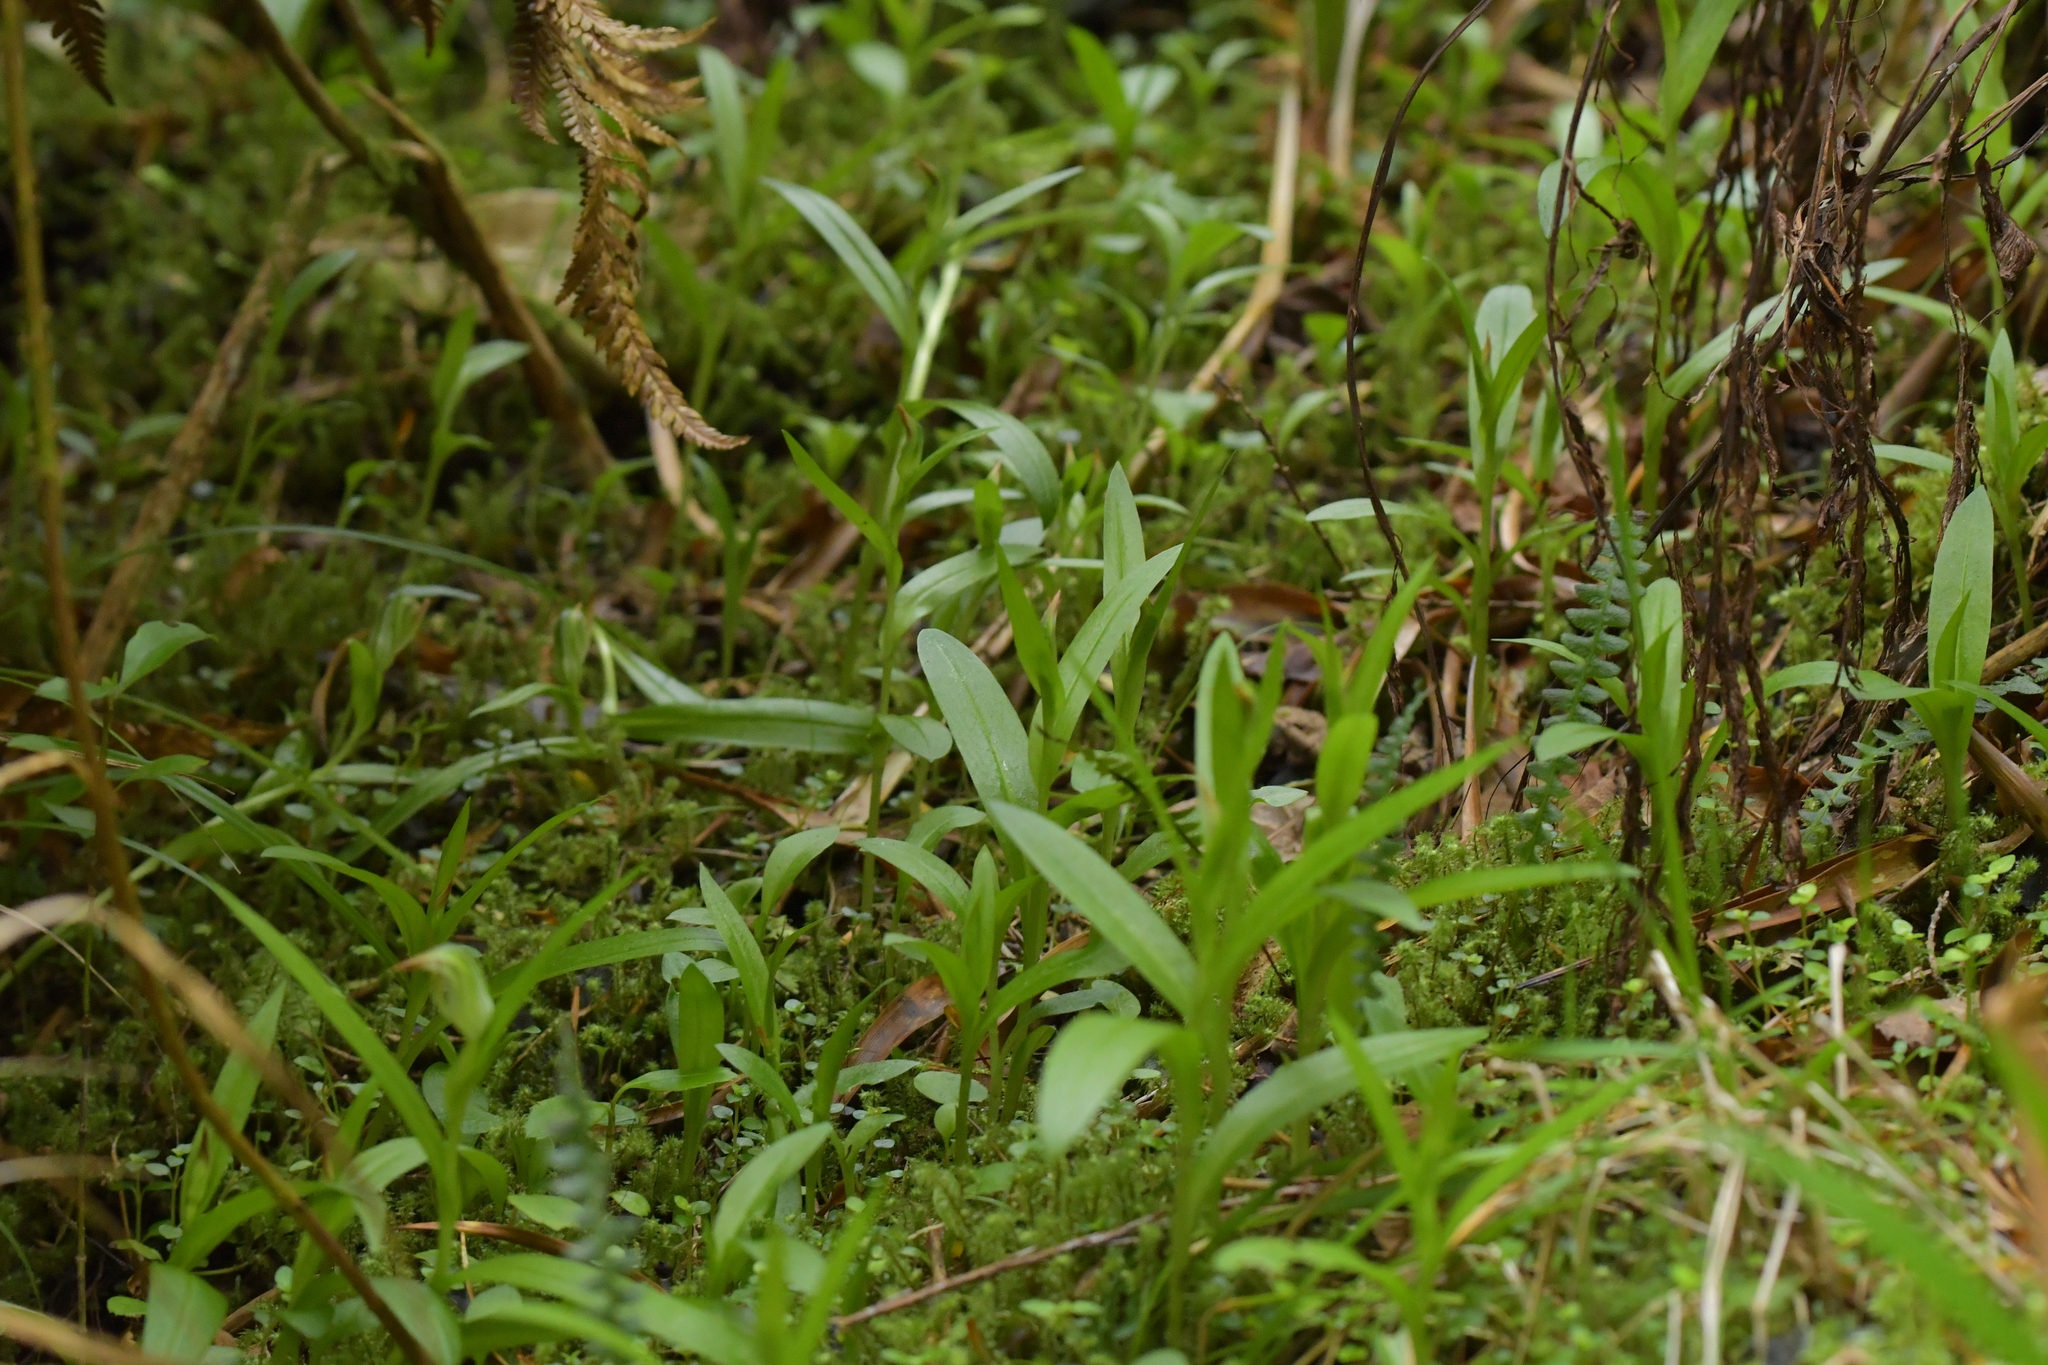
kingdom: Plantae
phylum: Tracheophyta
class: Liliopsida
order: Asparagales
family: Orchidaceae
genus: Pterostylis
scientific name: Pterostylis silvicultrix
